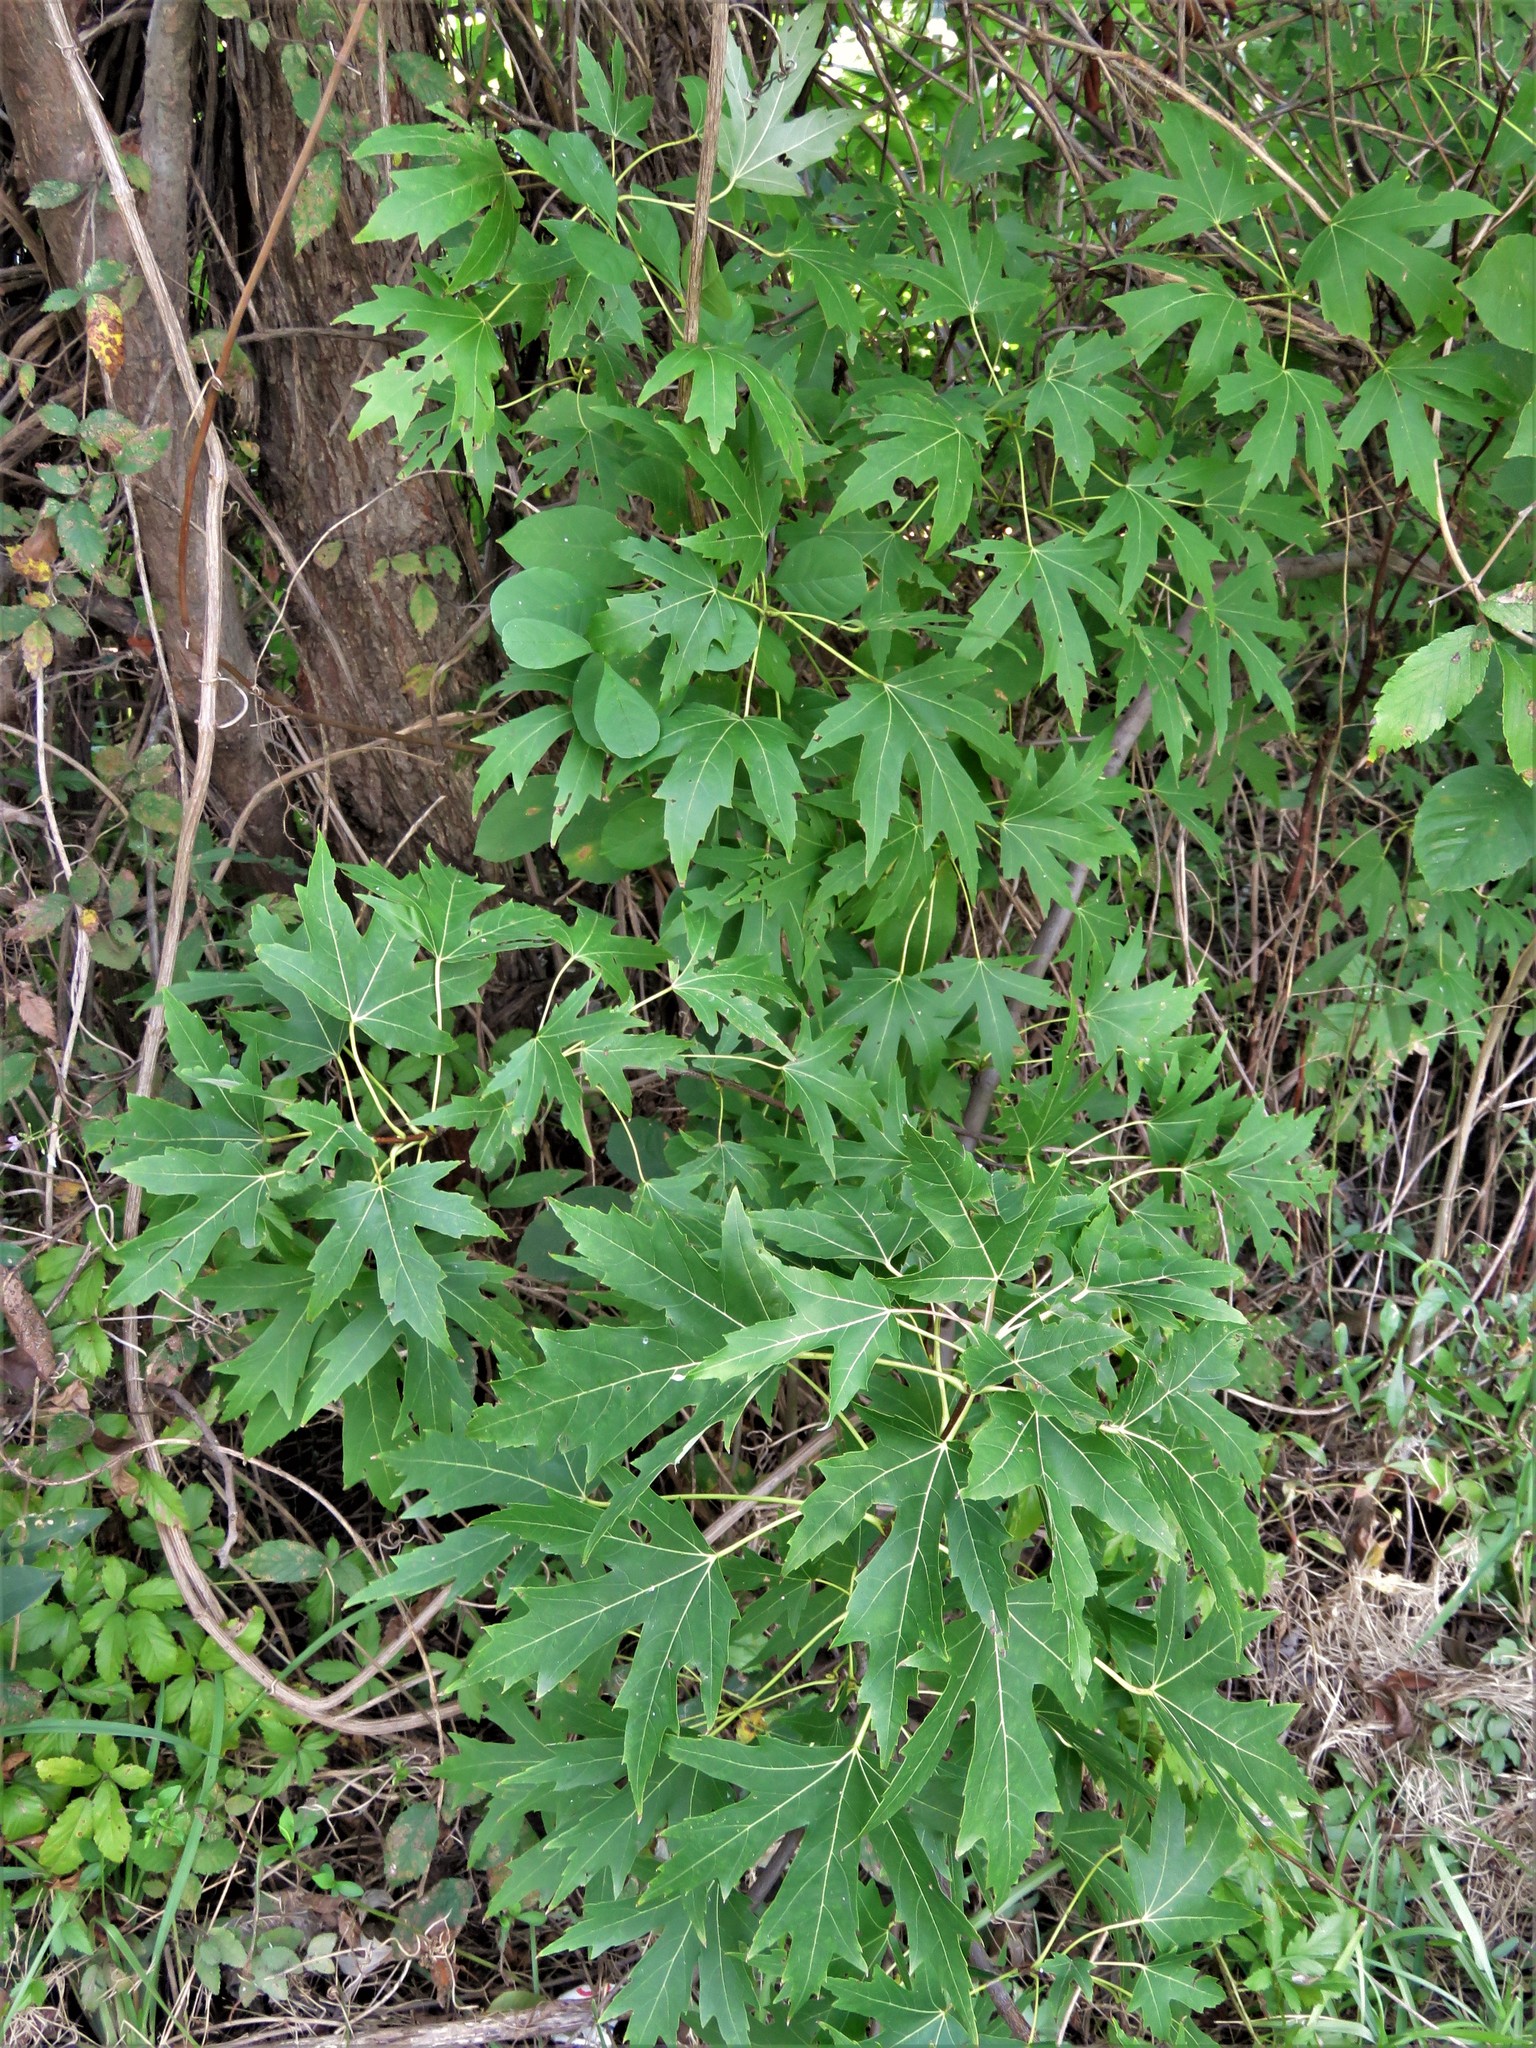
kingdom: Plantae
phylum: Tracheophyta
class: Magnoliopsida
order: Sapindales
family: Sapindaceae
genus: Acer
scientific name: Acer saccharinum
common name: Silver maple
